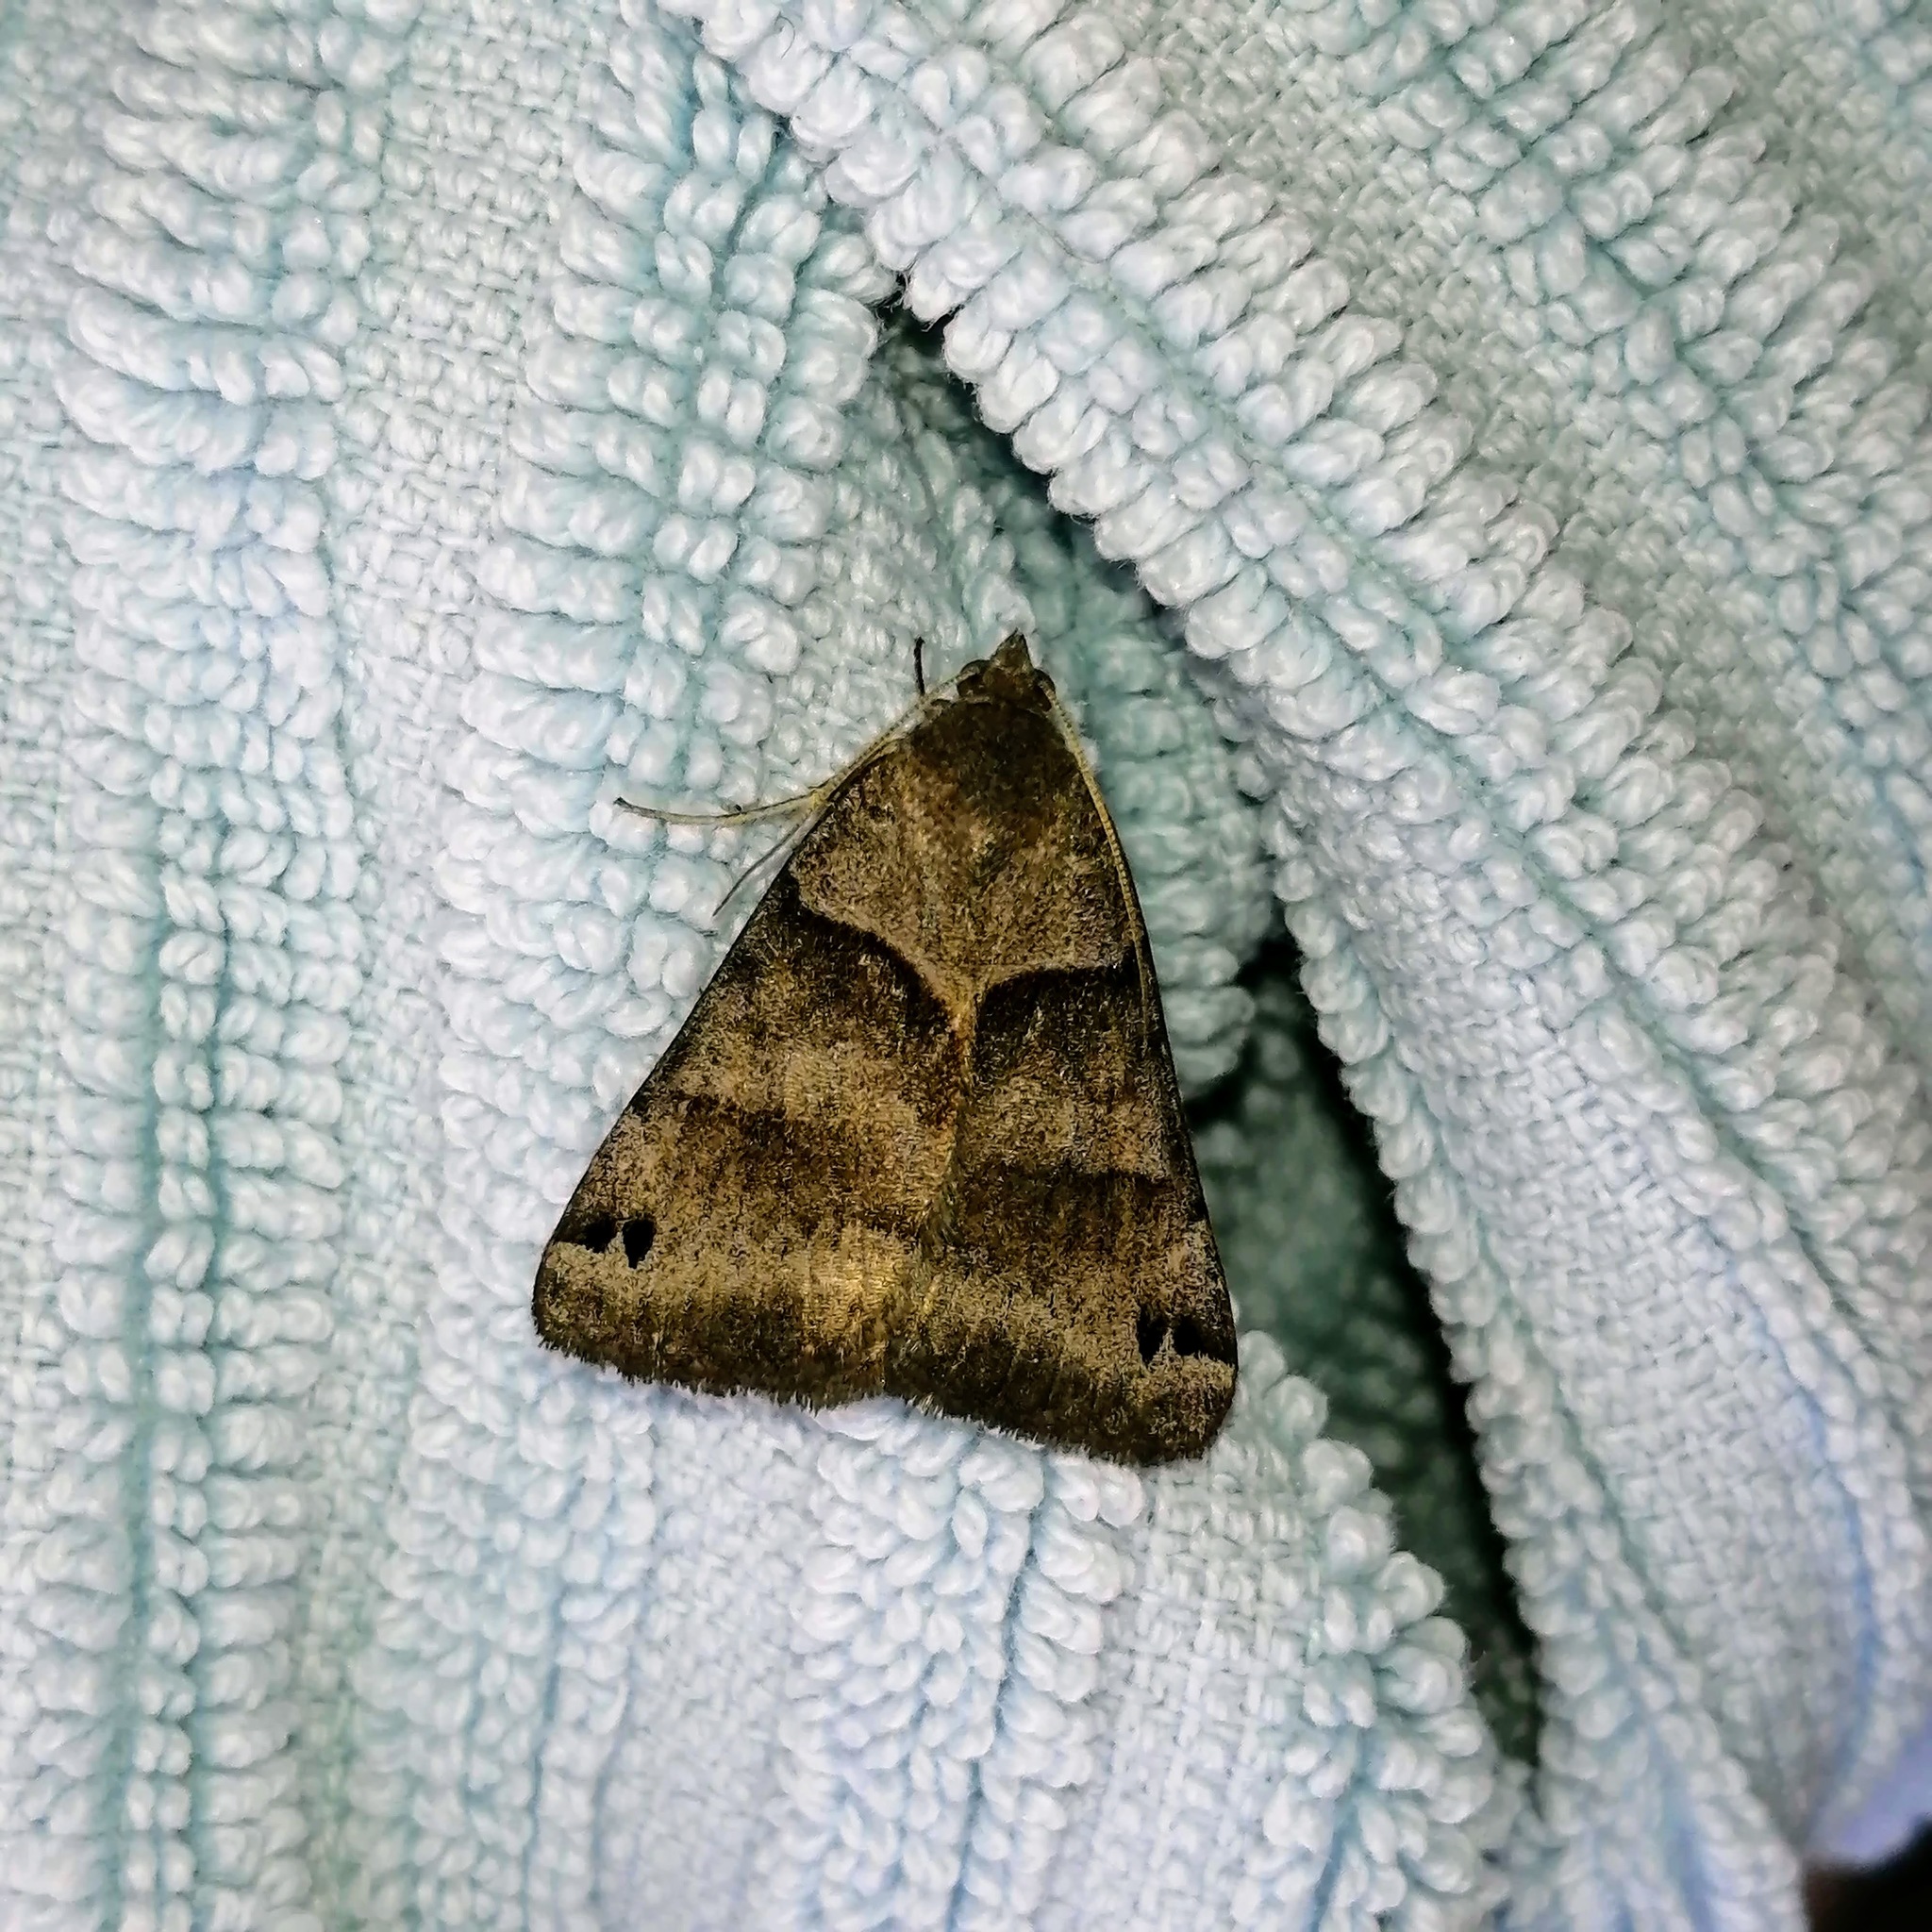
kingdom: Animalia
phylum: Arthropoda
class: Insecta
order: Lepidoptera
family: Erebidae
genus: Caenurgina
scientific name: Caenurgina erechtea
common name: Forage looper moth
